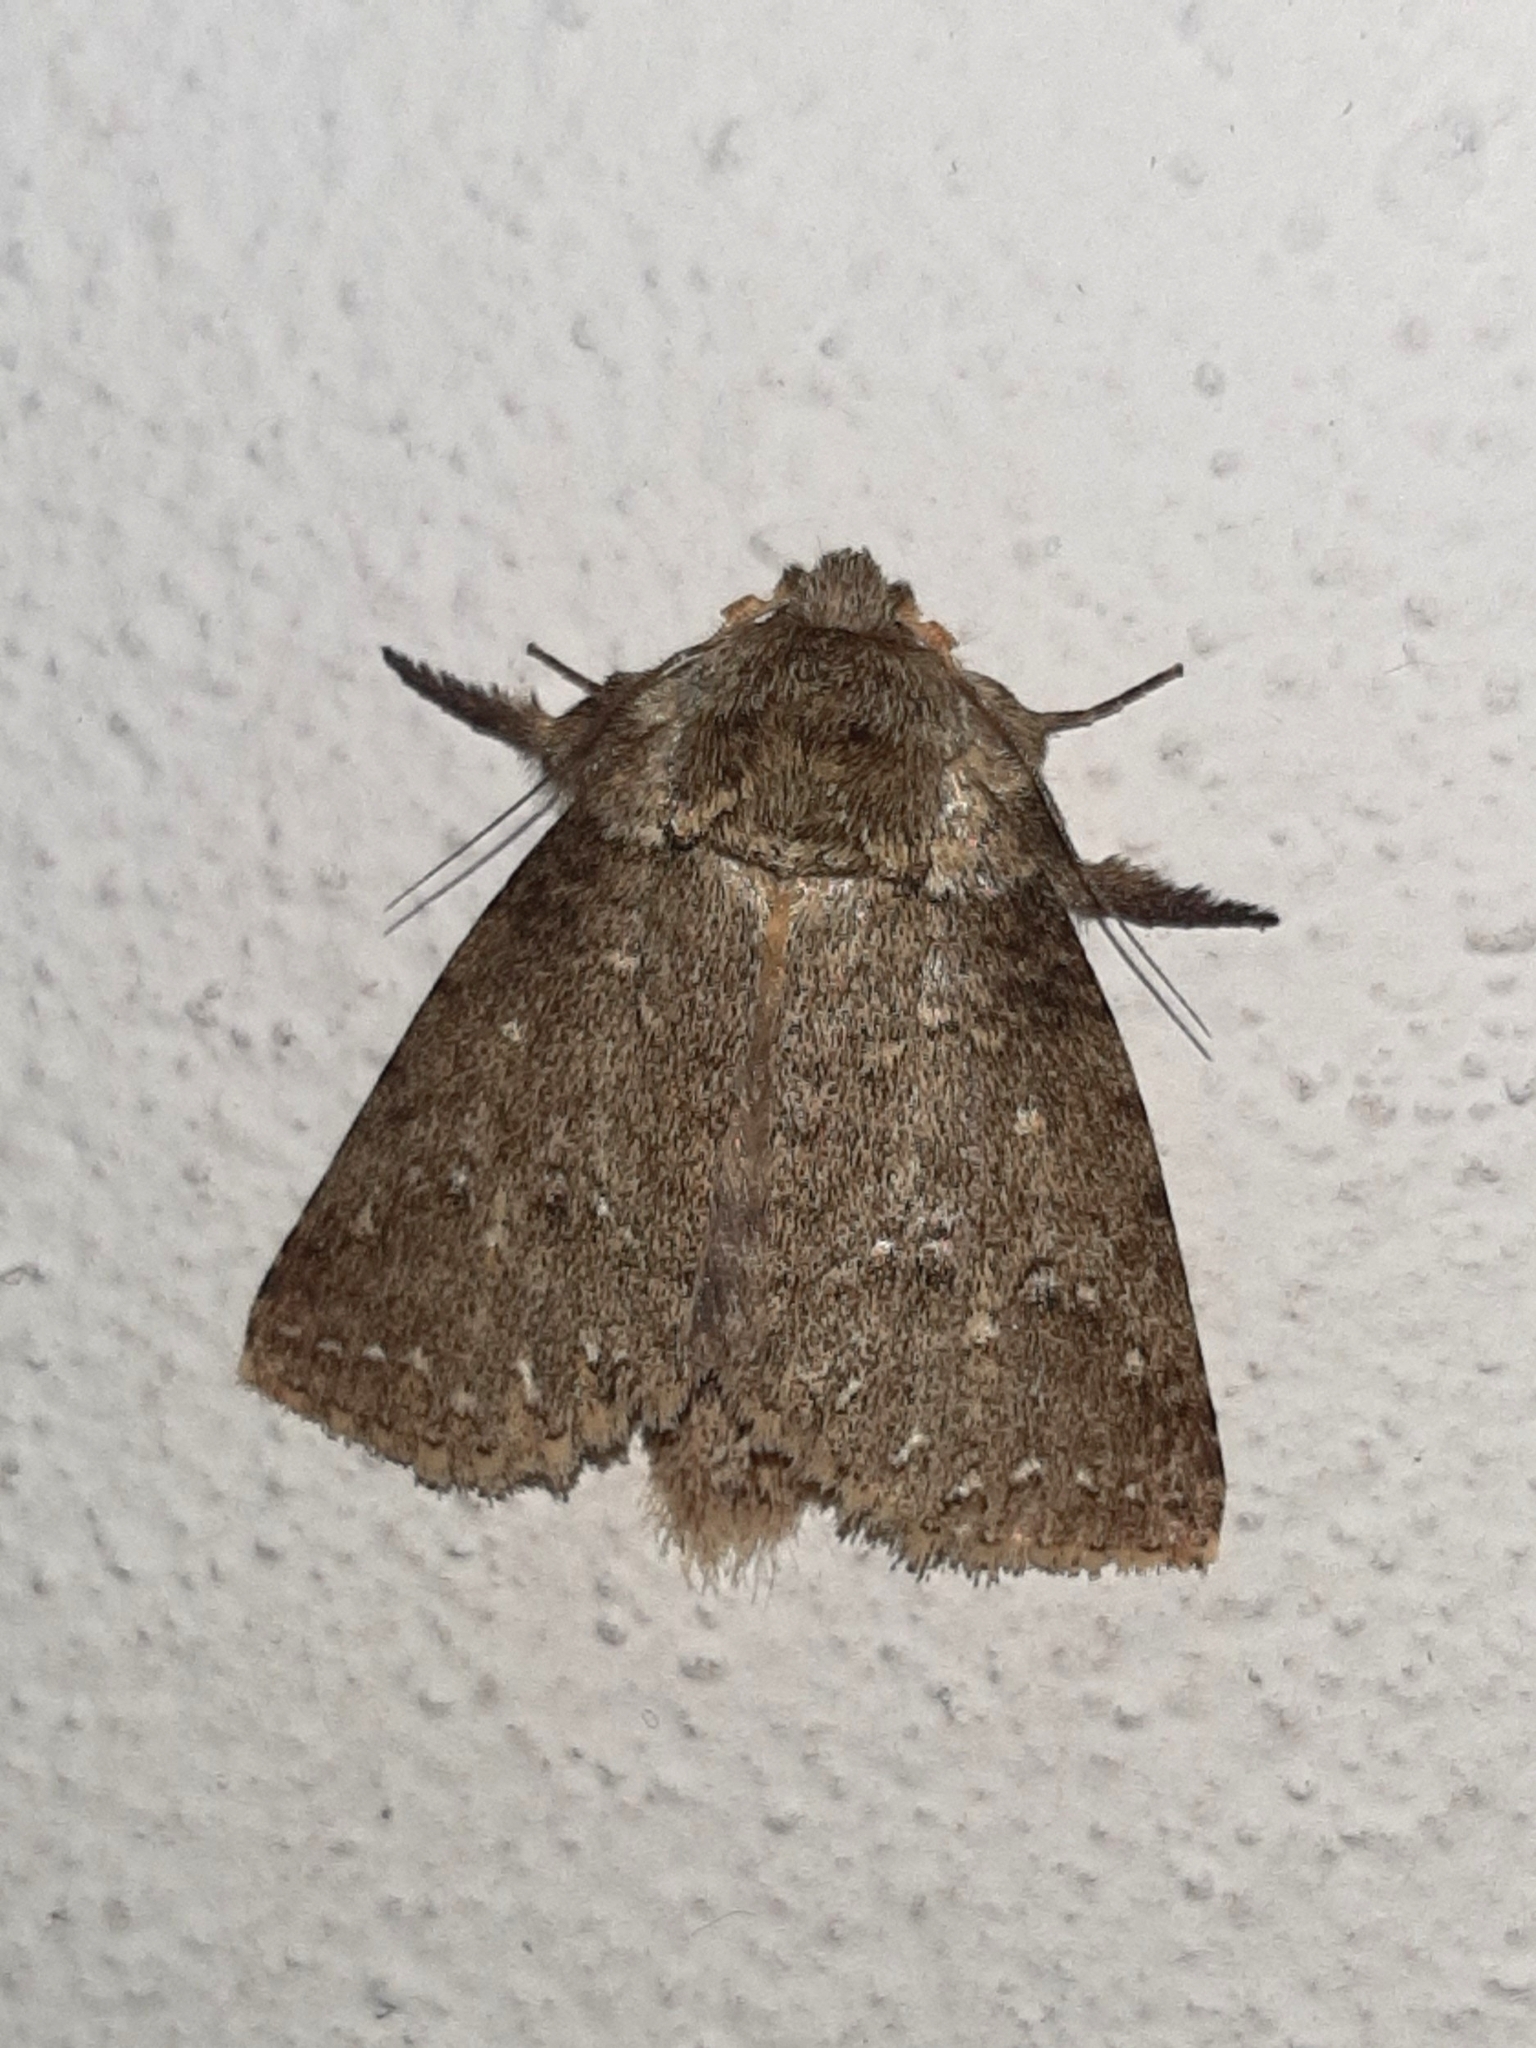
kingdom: Animalia
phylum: Arthropoda
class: Insecta
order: Lepidoptera
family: Notodontidae
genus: Drugera
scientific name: Drugera mimica
